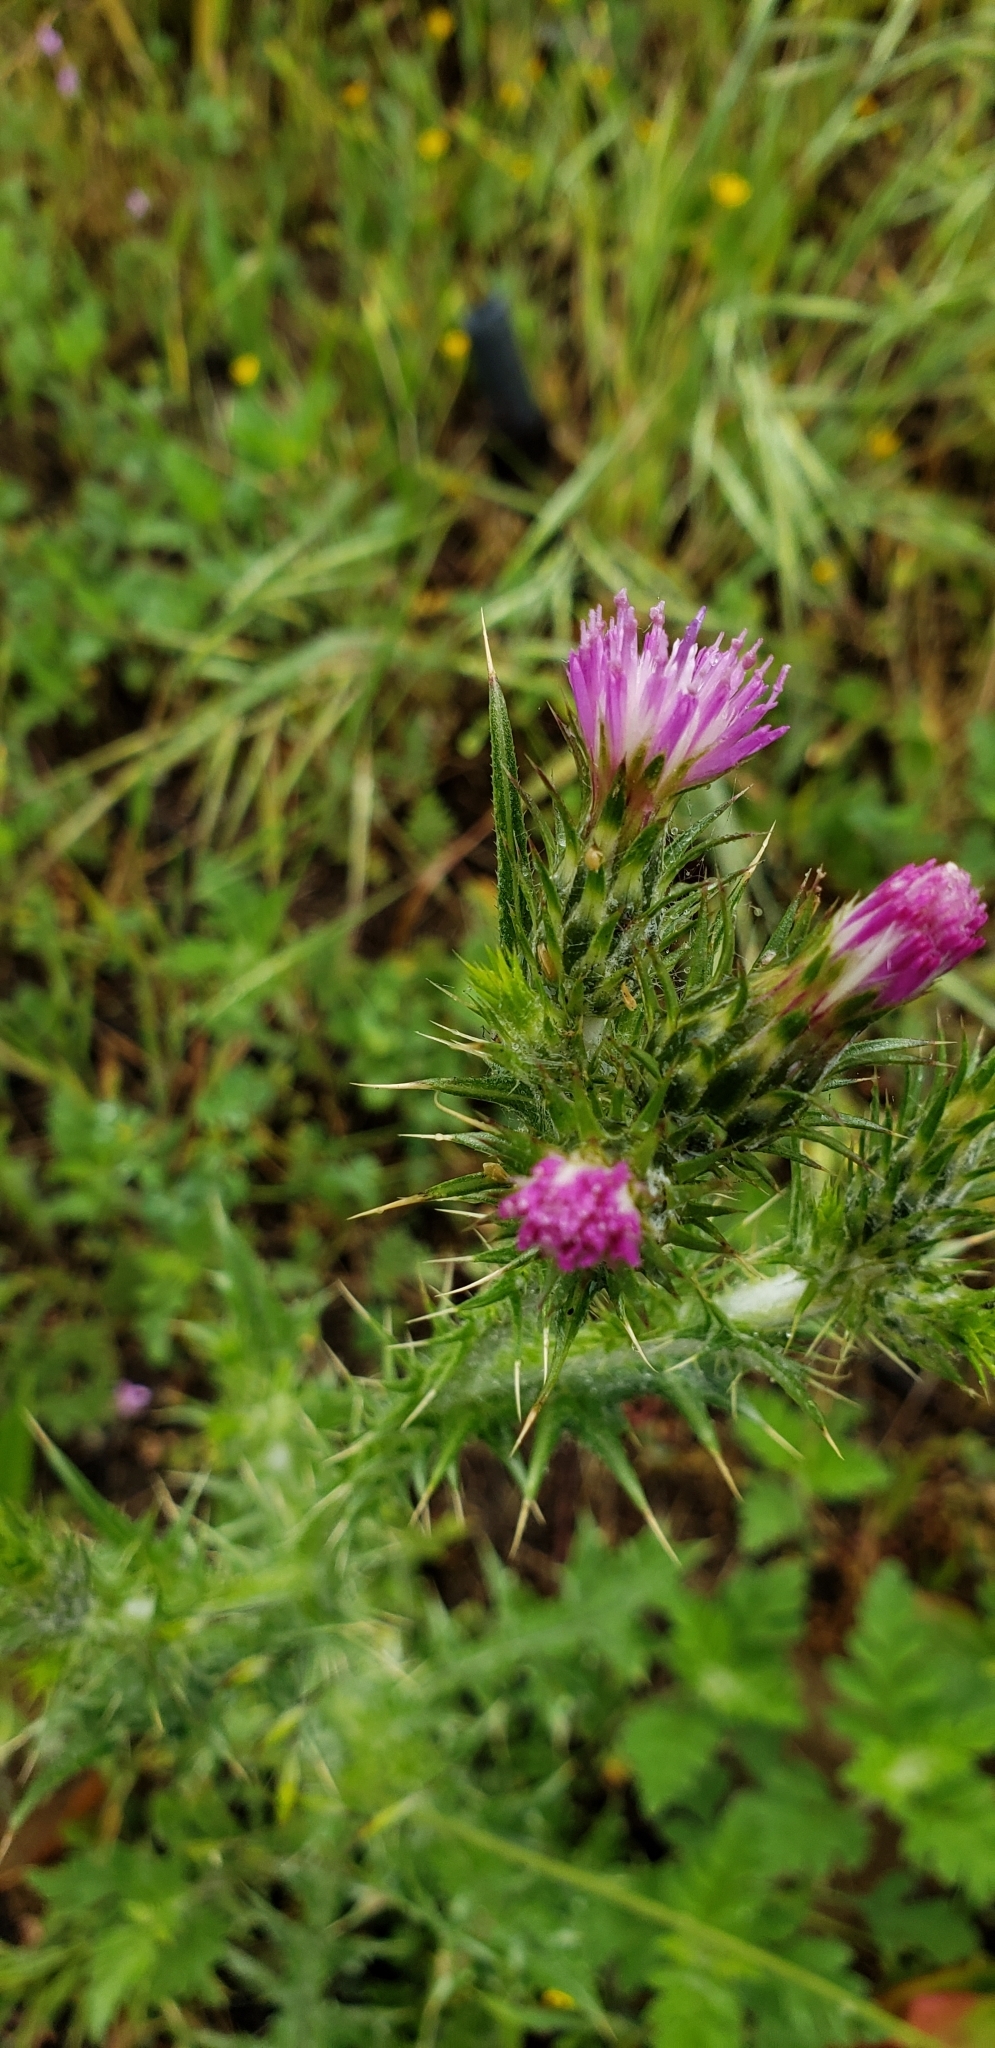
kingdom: Plantae
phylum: Tracheophyta
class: Magnoliopsida
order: Asterales
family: Asteraceae
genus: Carduus
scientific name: Carduus tenuiflorus
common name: Slender thistle
